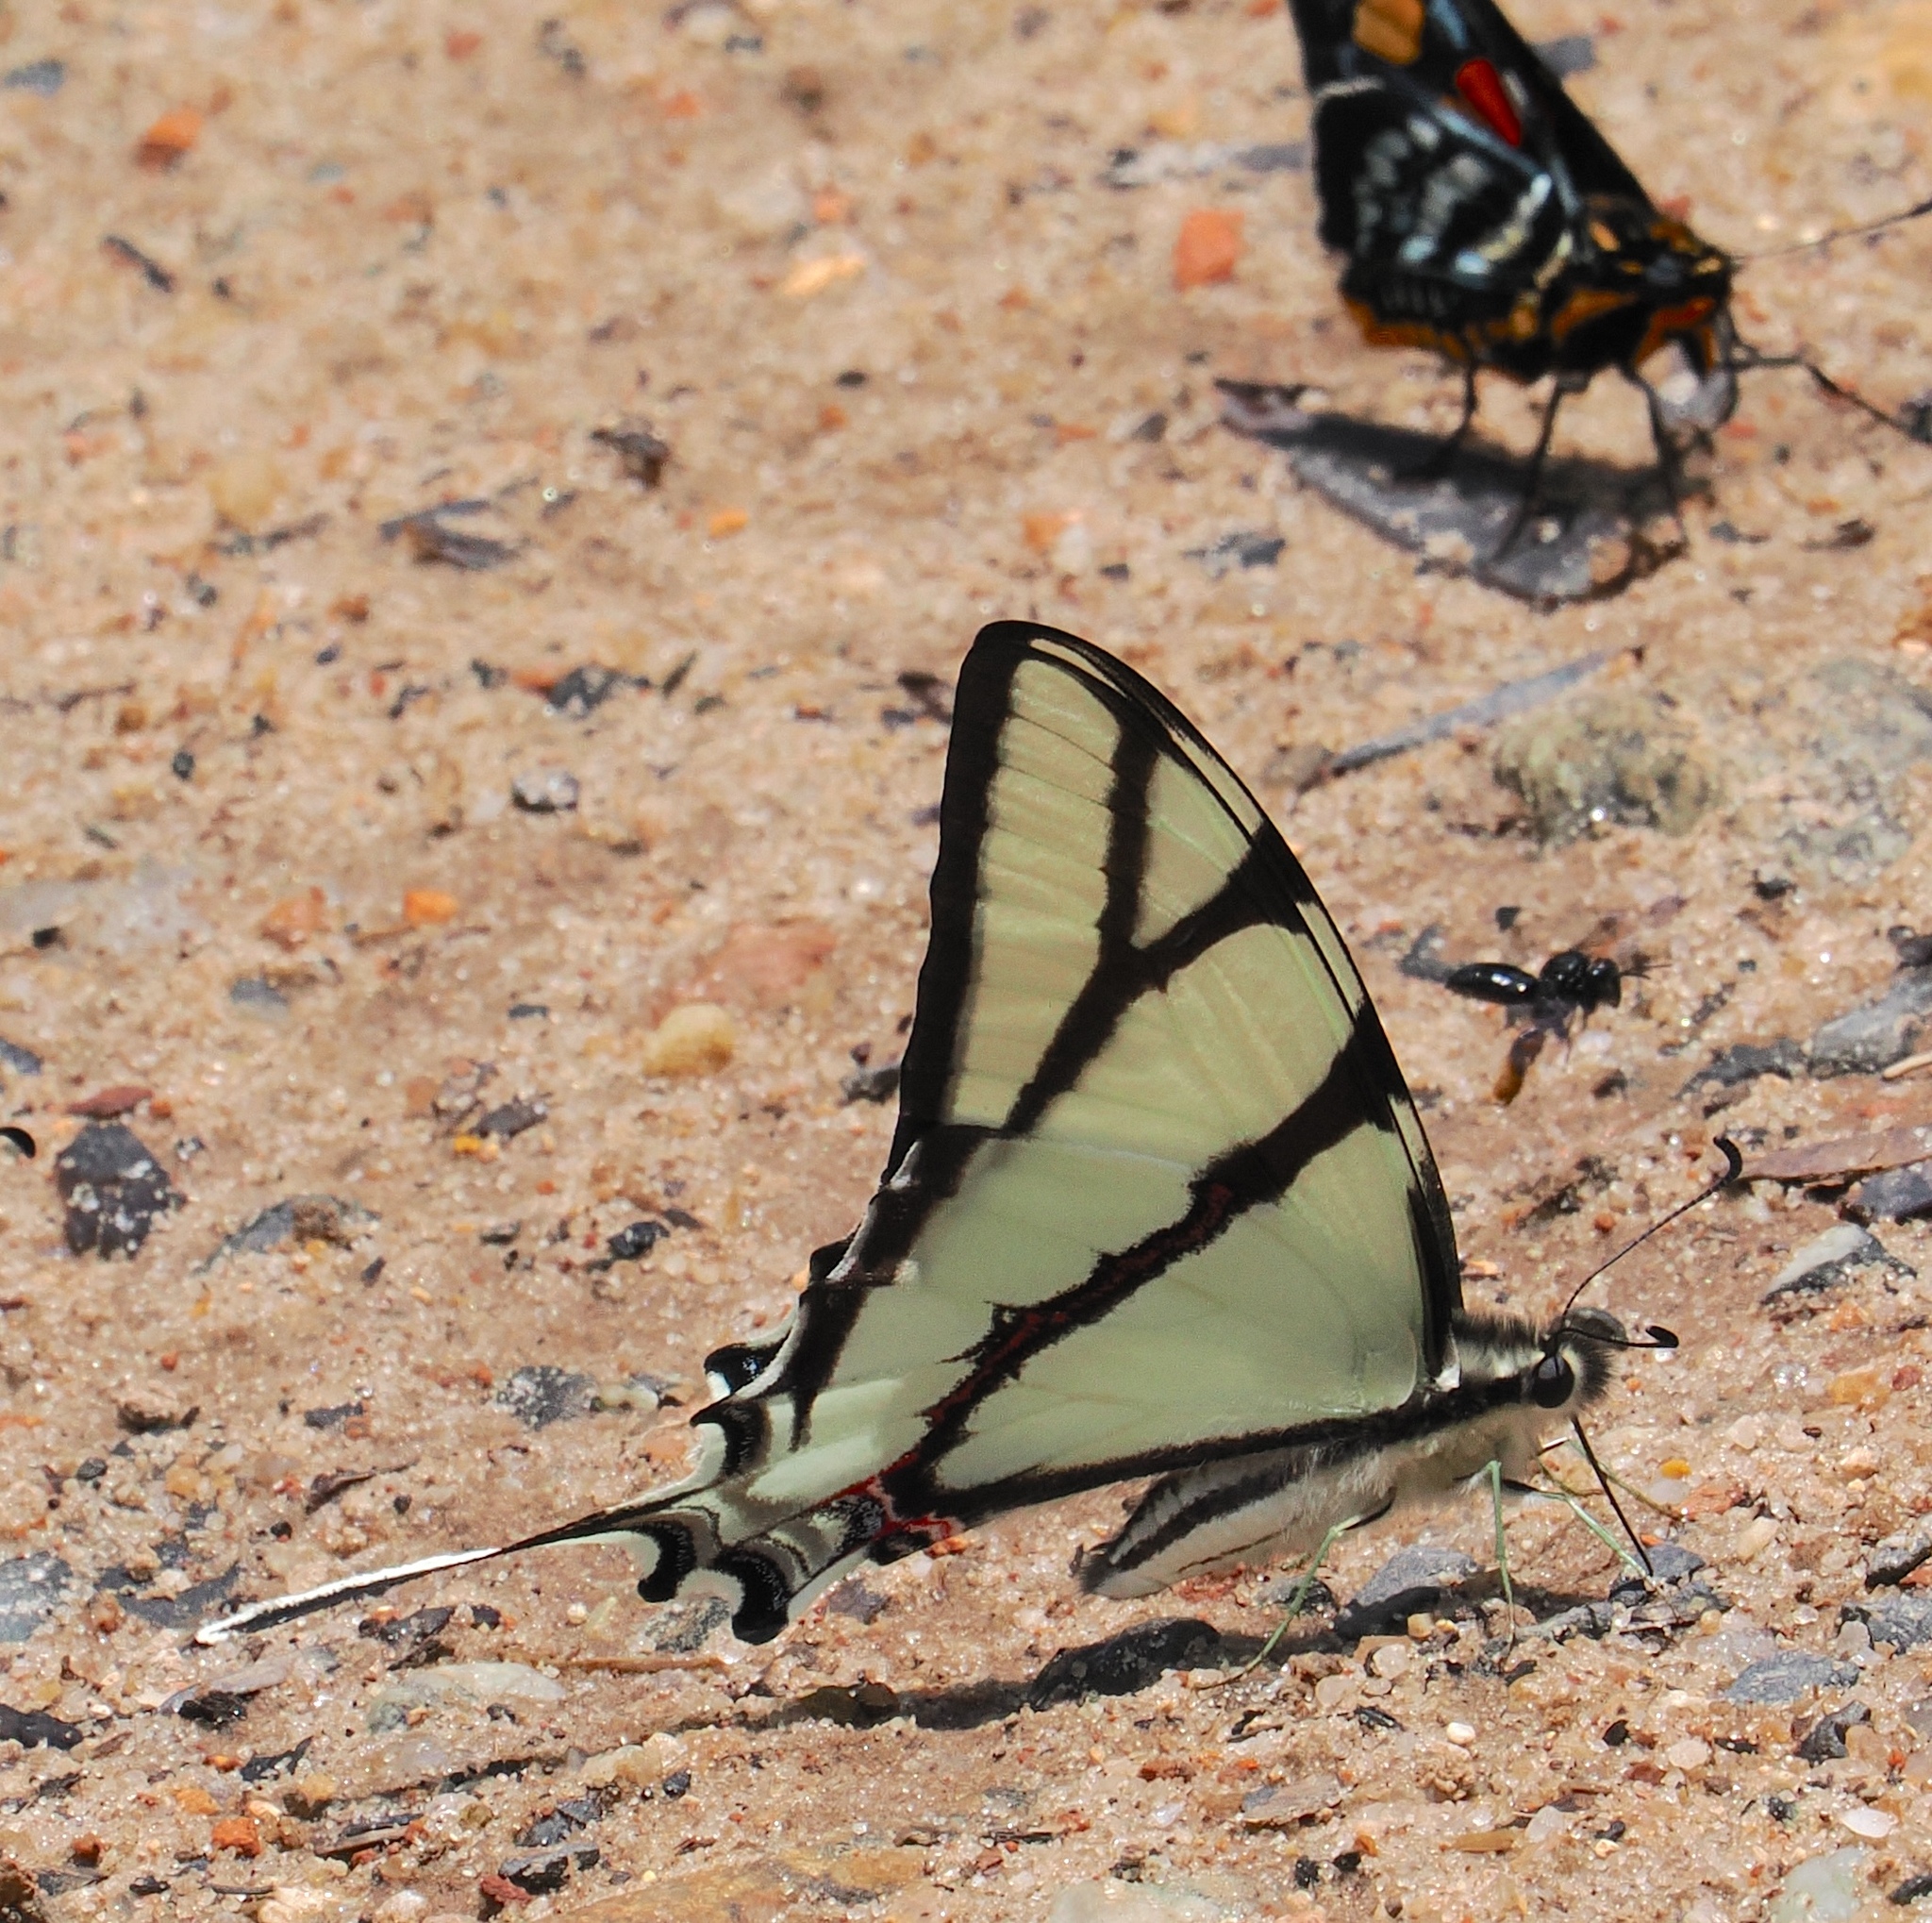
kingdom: Animalia
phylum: Arthropoda
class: Insecta
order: Lepidoptera
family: Papilionidae
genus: Eurytides
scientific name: Eurytides bellerophon
